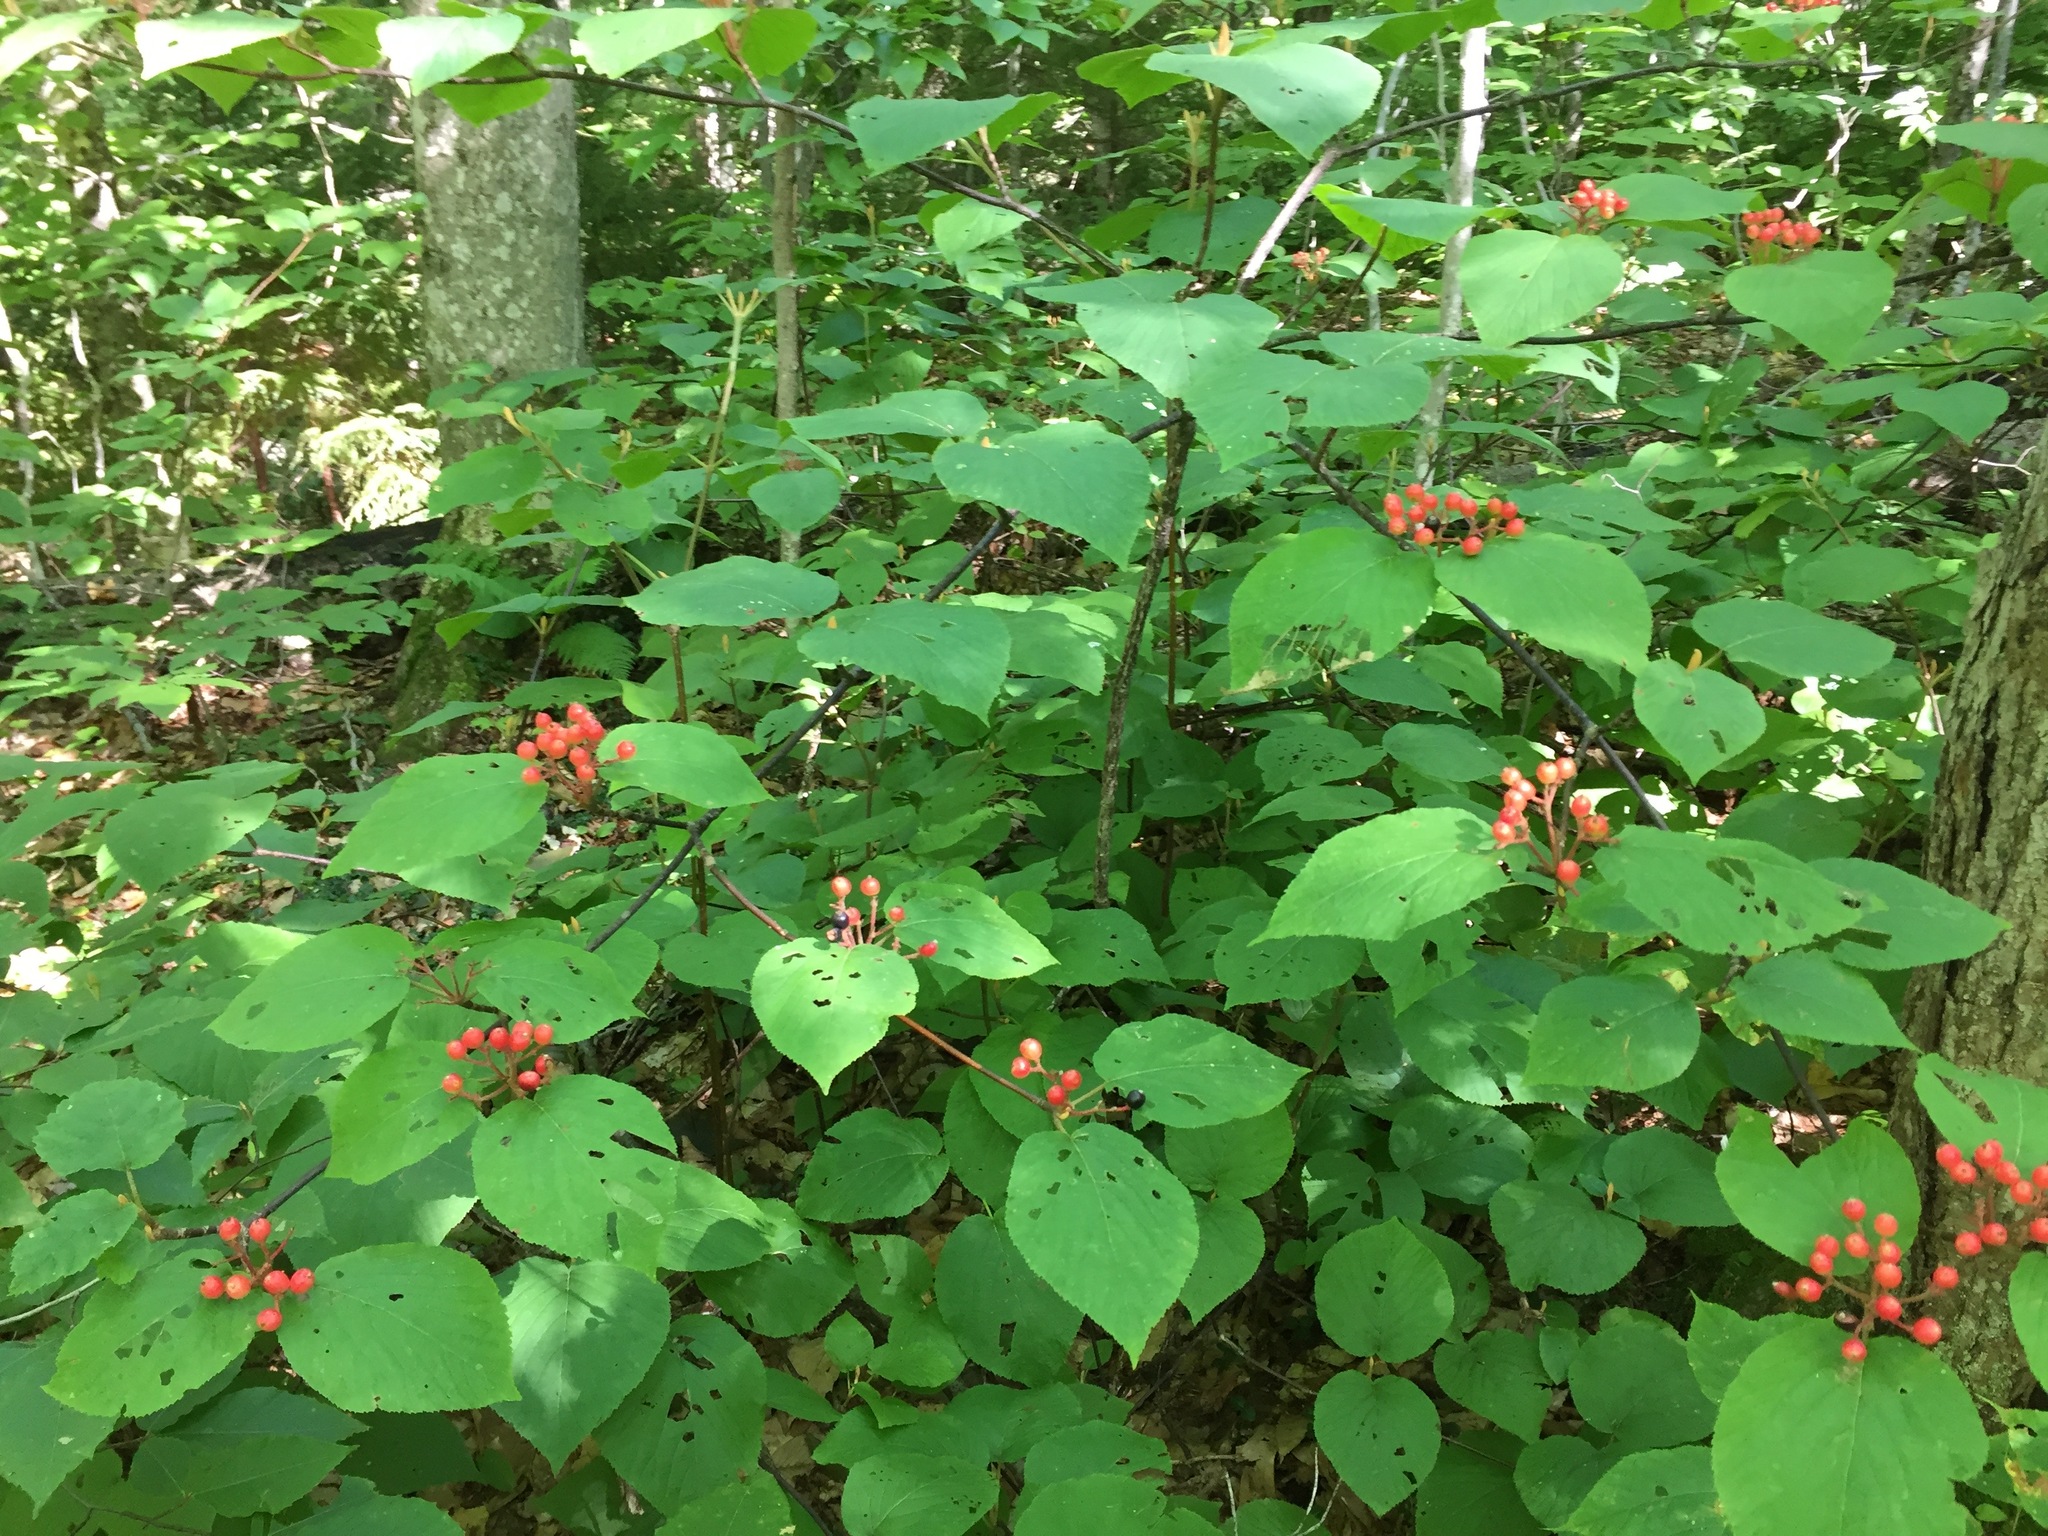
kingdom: Plantae
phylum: Tracheophyta
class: Magnoliopsida
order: Dipsacales
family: Viburnaceae
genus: Viburnum
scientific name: Viburnum lantanoides
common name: Hobblebush
